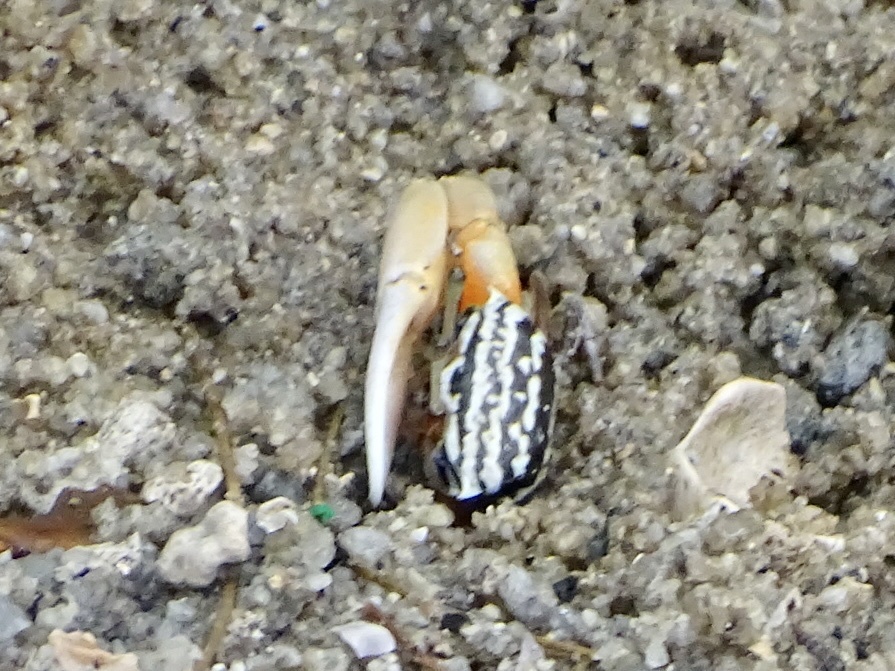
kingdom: Animalia
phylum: Arthropoda
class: Malacostraca
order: Decapoda
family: Ocypodidae
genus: Austruca
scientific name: Austruca annulipes
